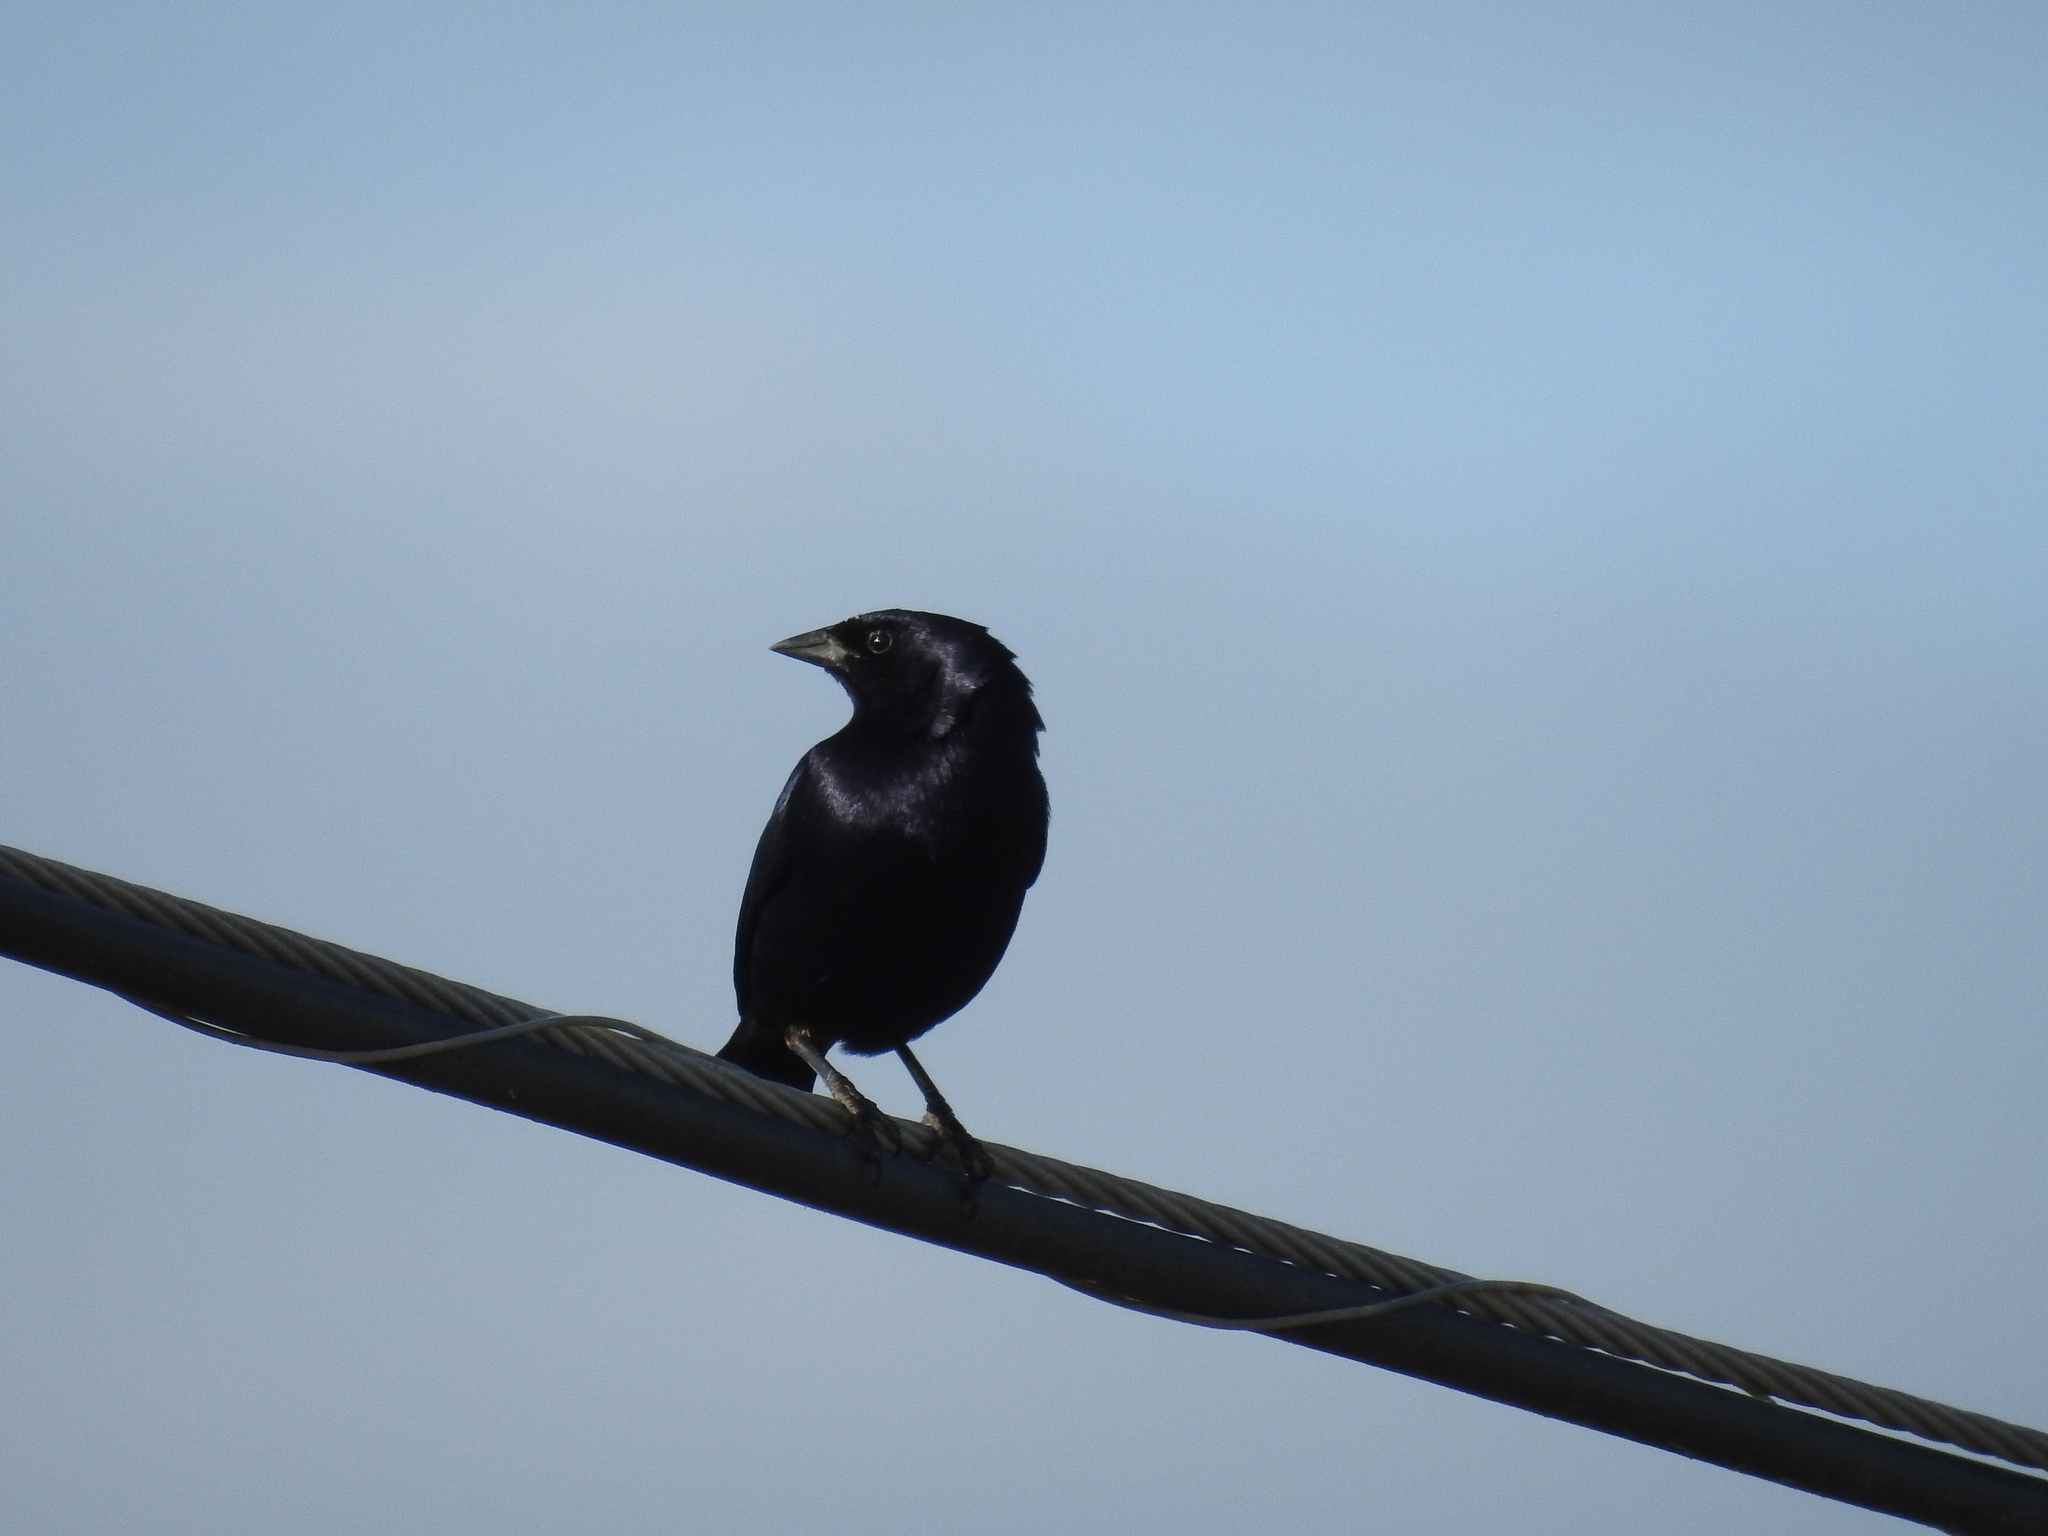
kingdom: Animalia
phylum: Chordata
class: Aves
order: Passeriformes
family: Icteridae
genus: Molothrus
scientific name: Molothrus bonariensis
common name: Shiny cowbird
